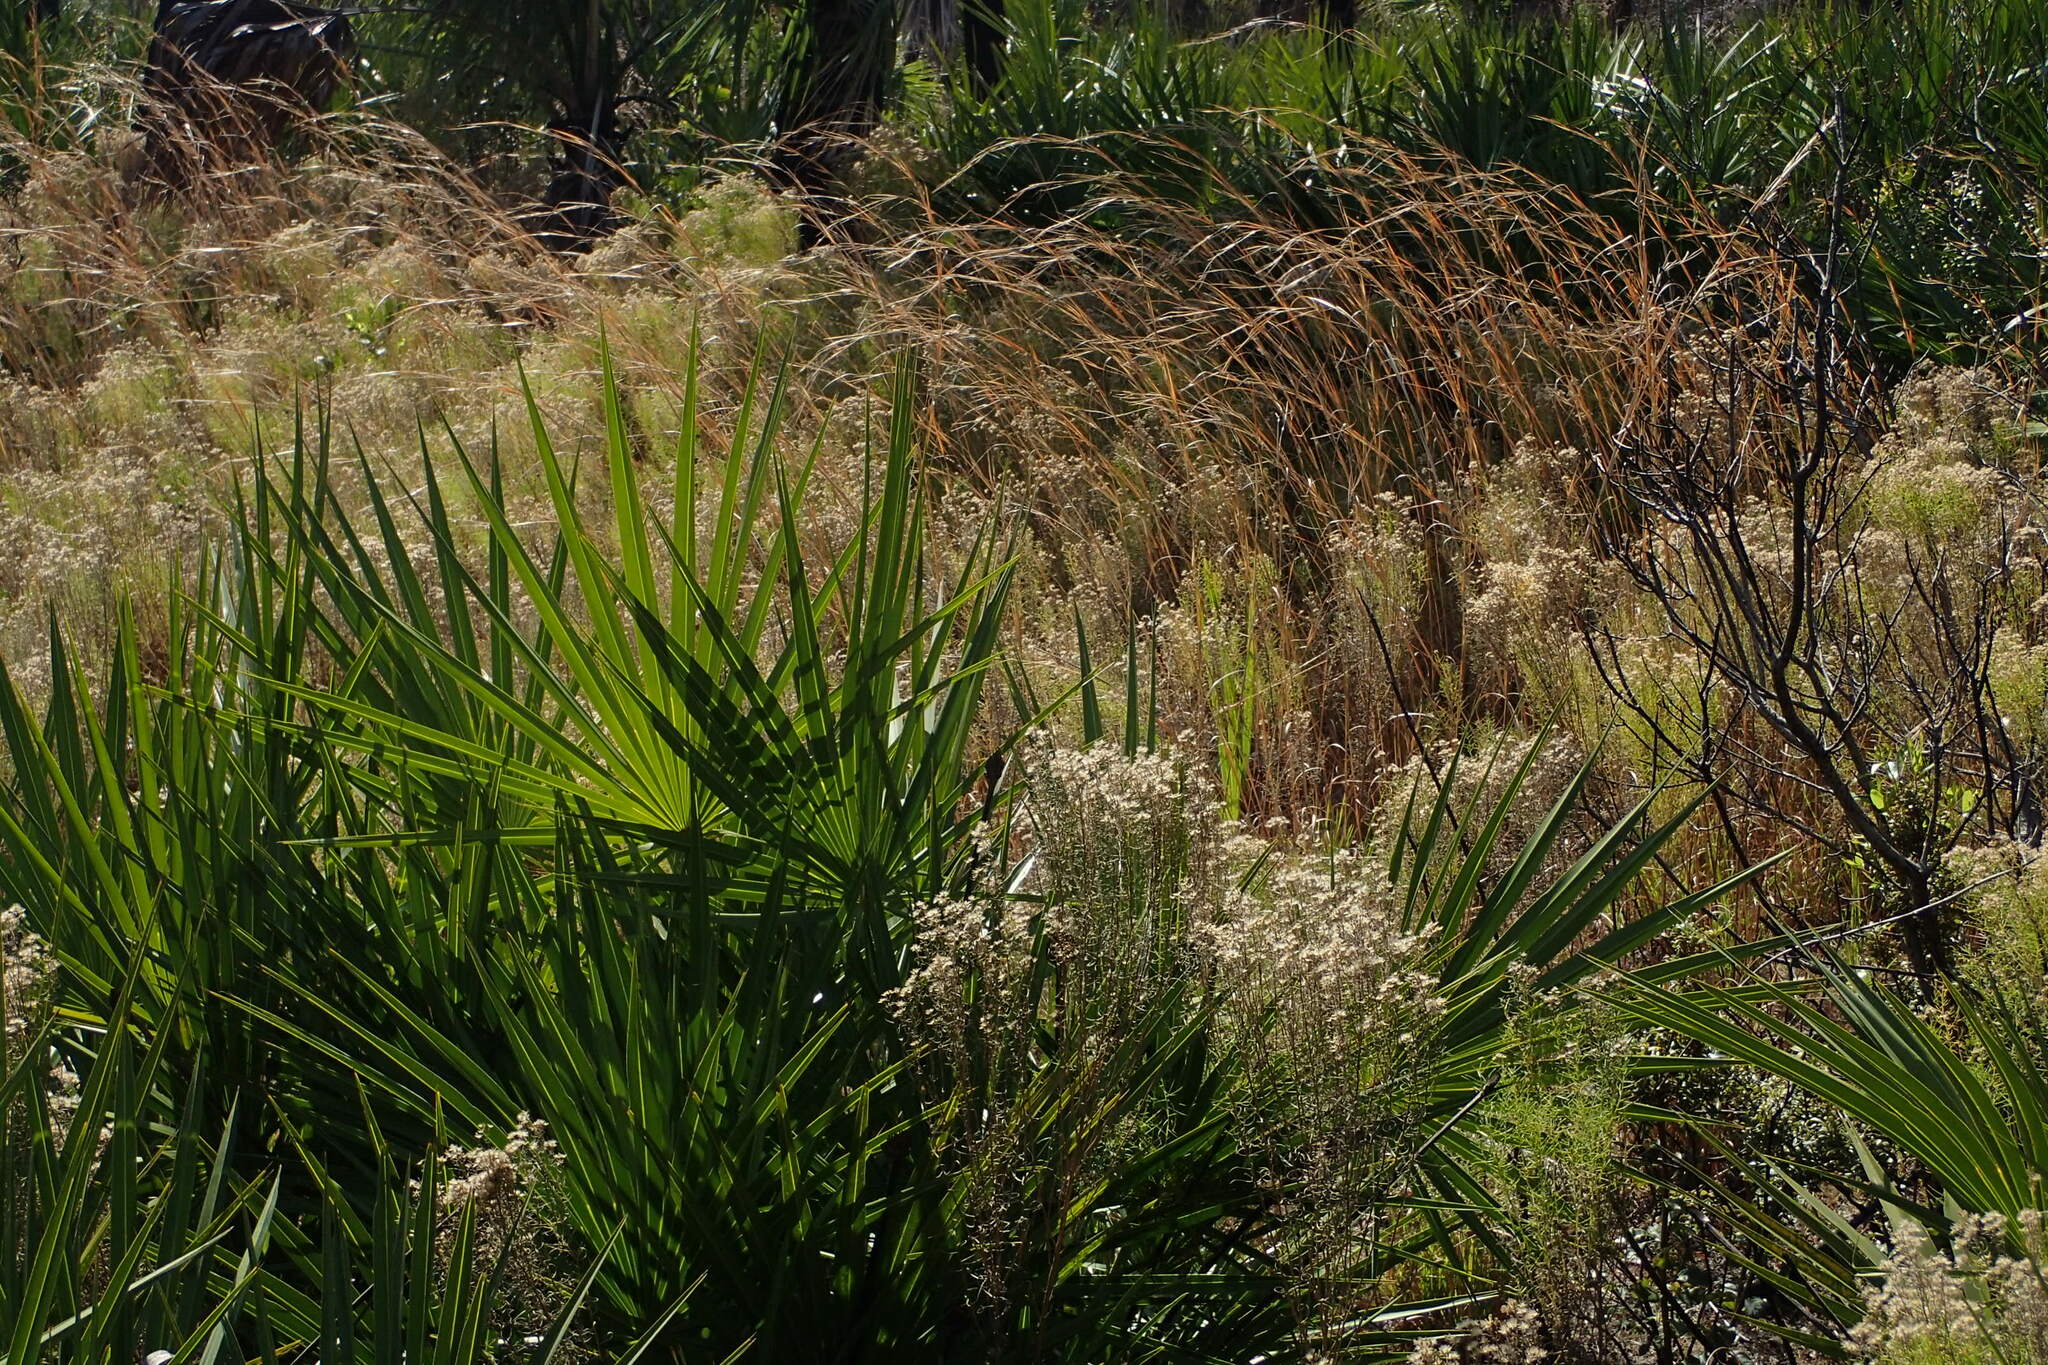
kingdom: Plantae
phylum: Tracheophyta
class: Magnoliopsida
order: Asterales
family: Asteraceae
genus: Euthamia
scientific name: Euthamia caroliniana
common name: Coastal plain goldentop
